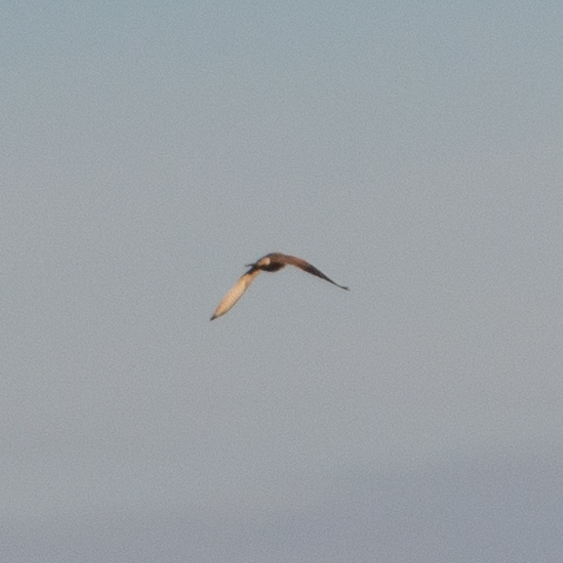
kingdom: Animalia
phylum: Chordata
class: Aves
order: Falconiformes
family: Falconidae
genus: Falco
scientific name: Falco tinnunculus
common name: Common kestrel
